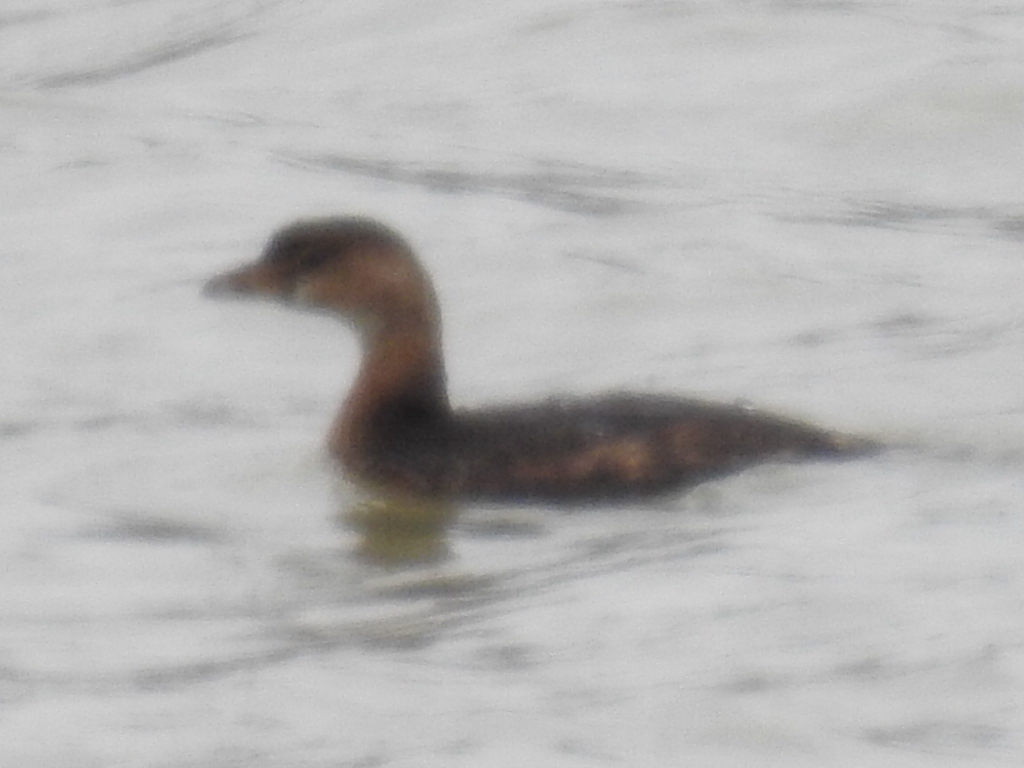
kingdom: Animalia
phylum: Chordata
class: Aves
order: Podicipediformes
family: Podicipedidae
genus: Podilymbus
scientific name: Podilymbus podiceps
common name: Pied-billed grebe
